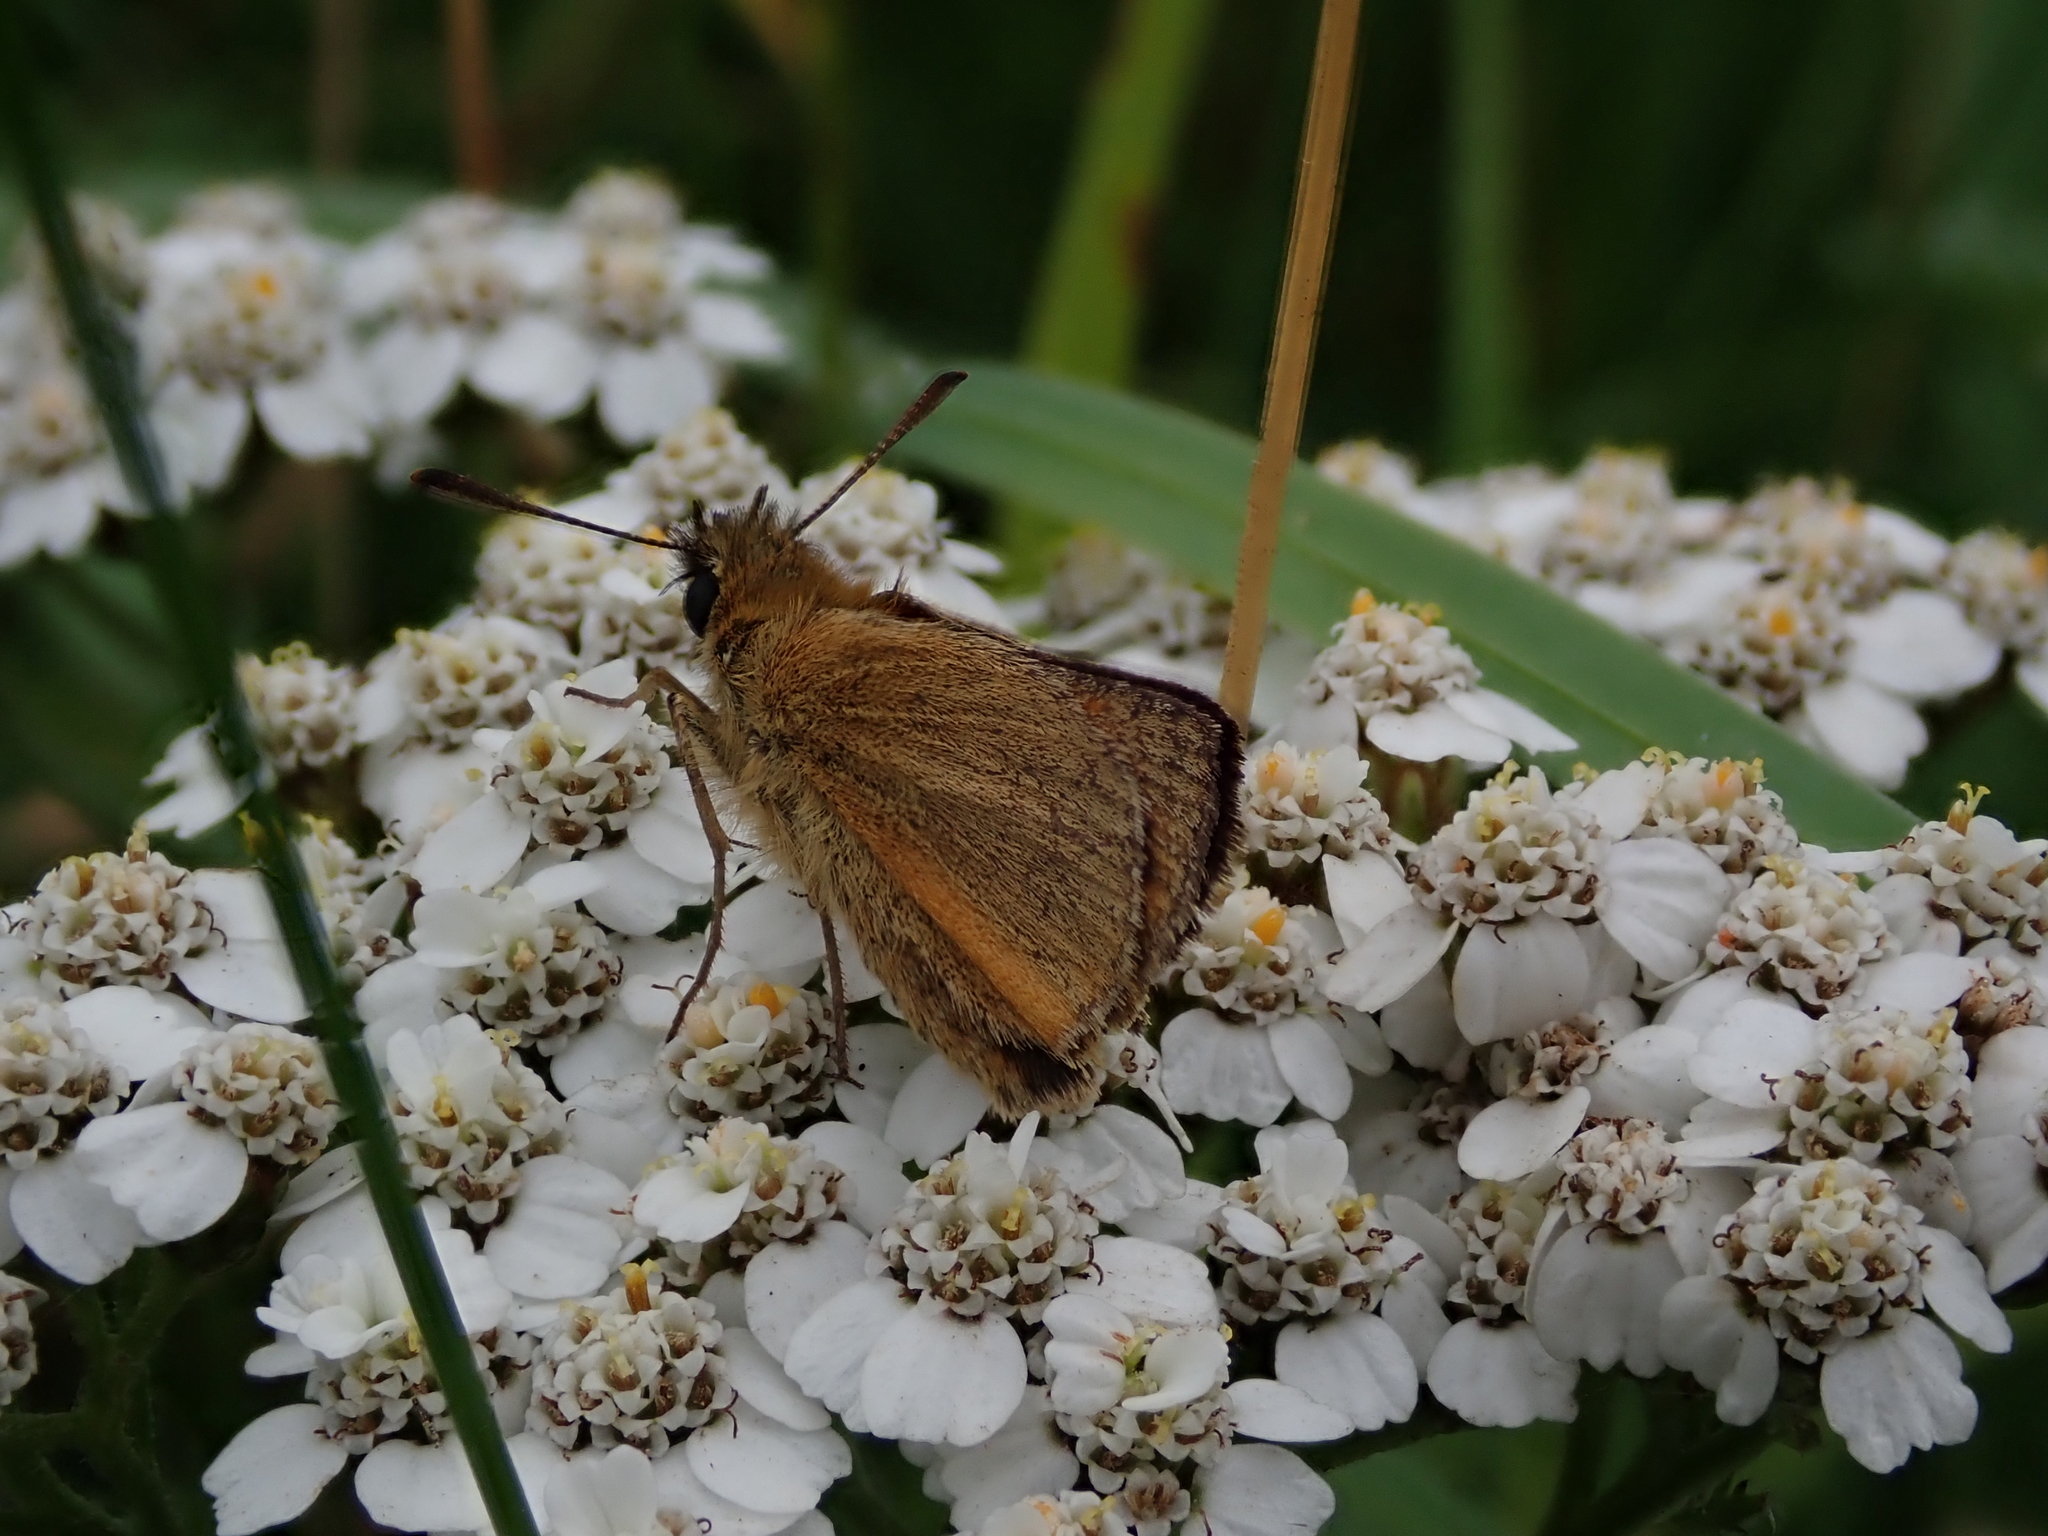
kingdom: Animalia
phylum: Arthropoda
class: Insecta
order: Lepidoptera
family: Hesperiidae
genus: Thymelicus
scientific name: Thymelicus sylvestris
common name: Small skipper
